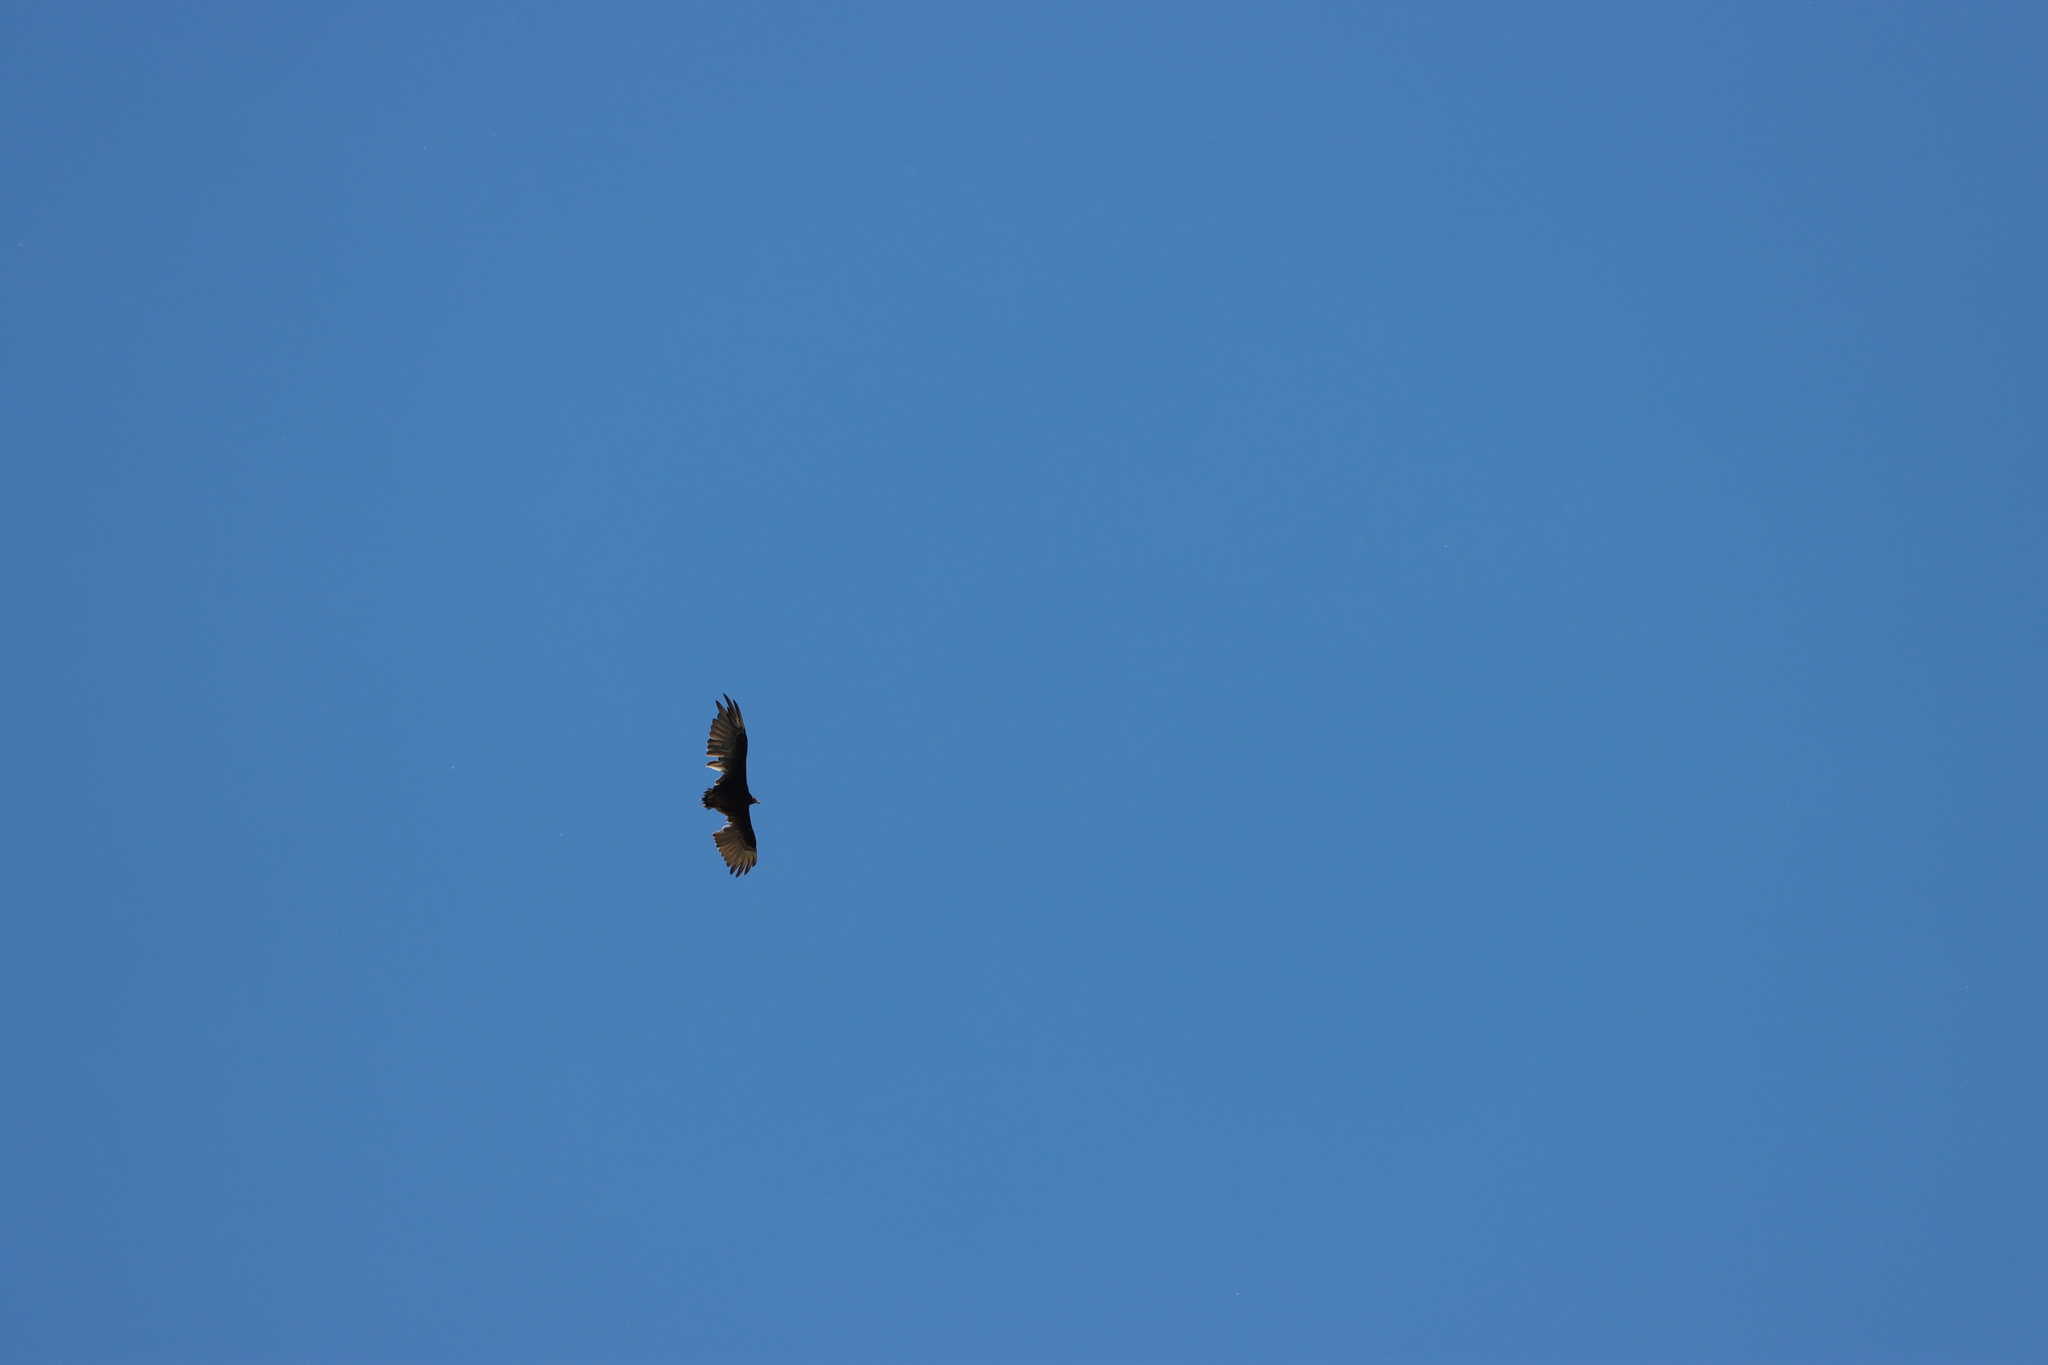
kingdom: Animalia
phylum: Chordata
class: Aves
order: Accipitriformes
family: Cathartidae
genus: Cathartes
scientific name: Cathartes aura
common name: Turkey vulture
